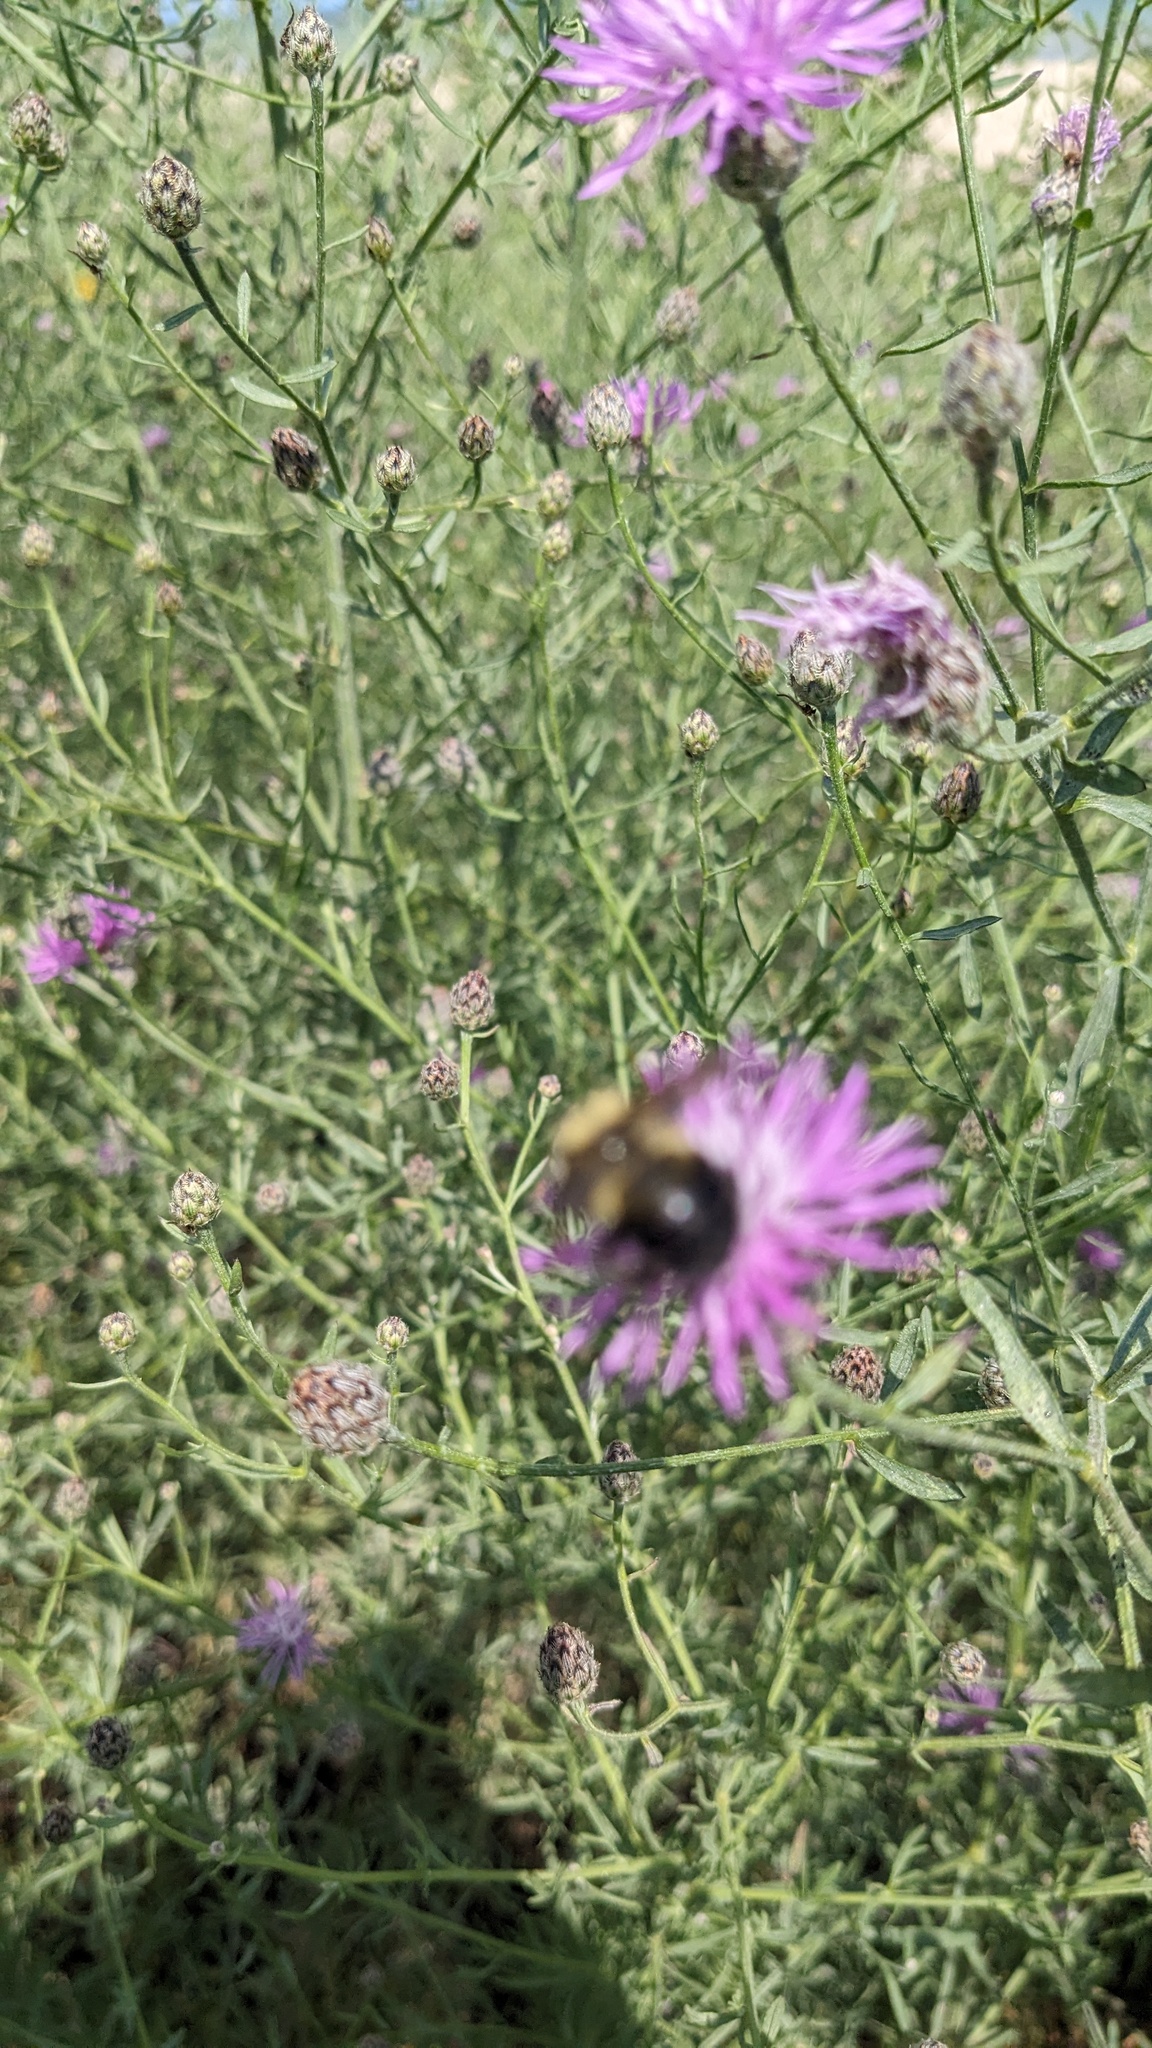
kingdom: Animalia
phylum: Arthropoda
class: Insecta
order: Hymenoptera
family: Apidae
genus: Bombus
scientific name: Bombus rufocinctus
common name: Red-belted bumble bee
